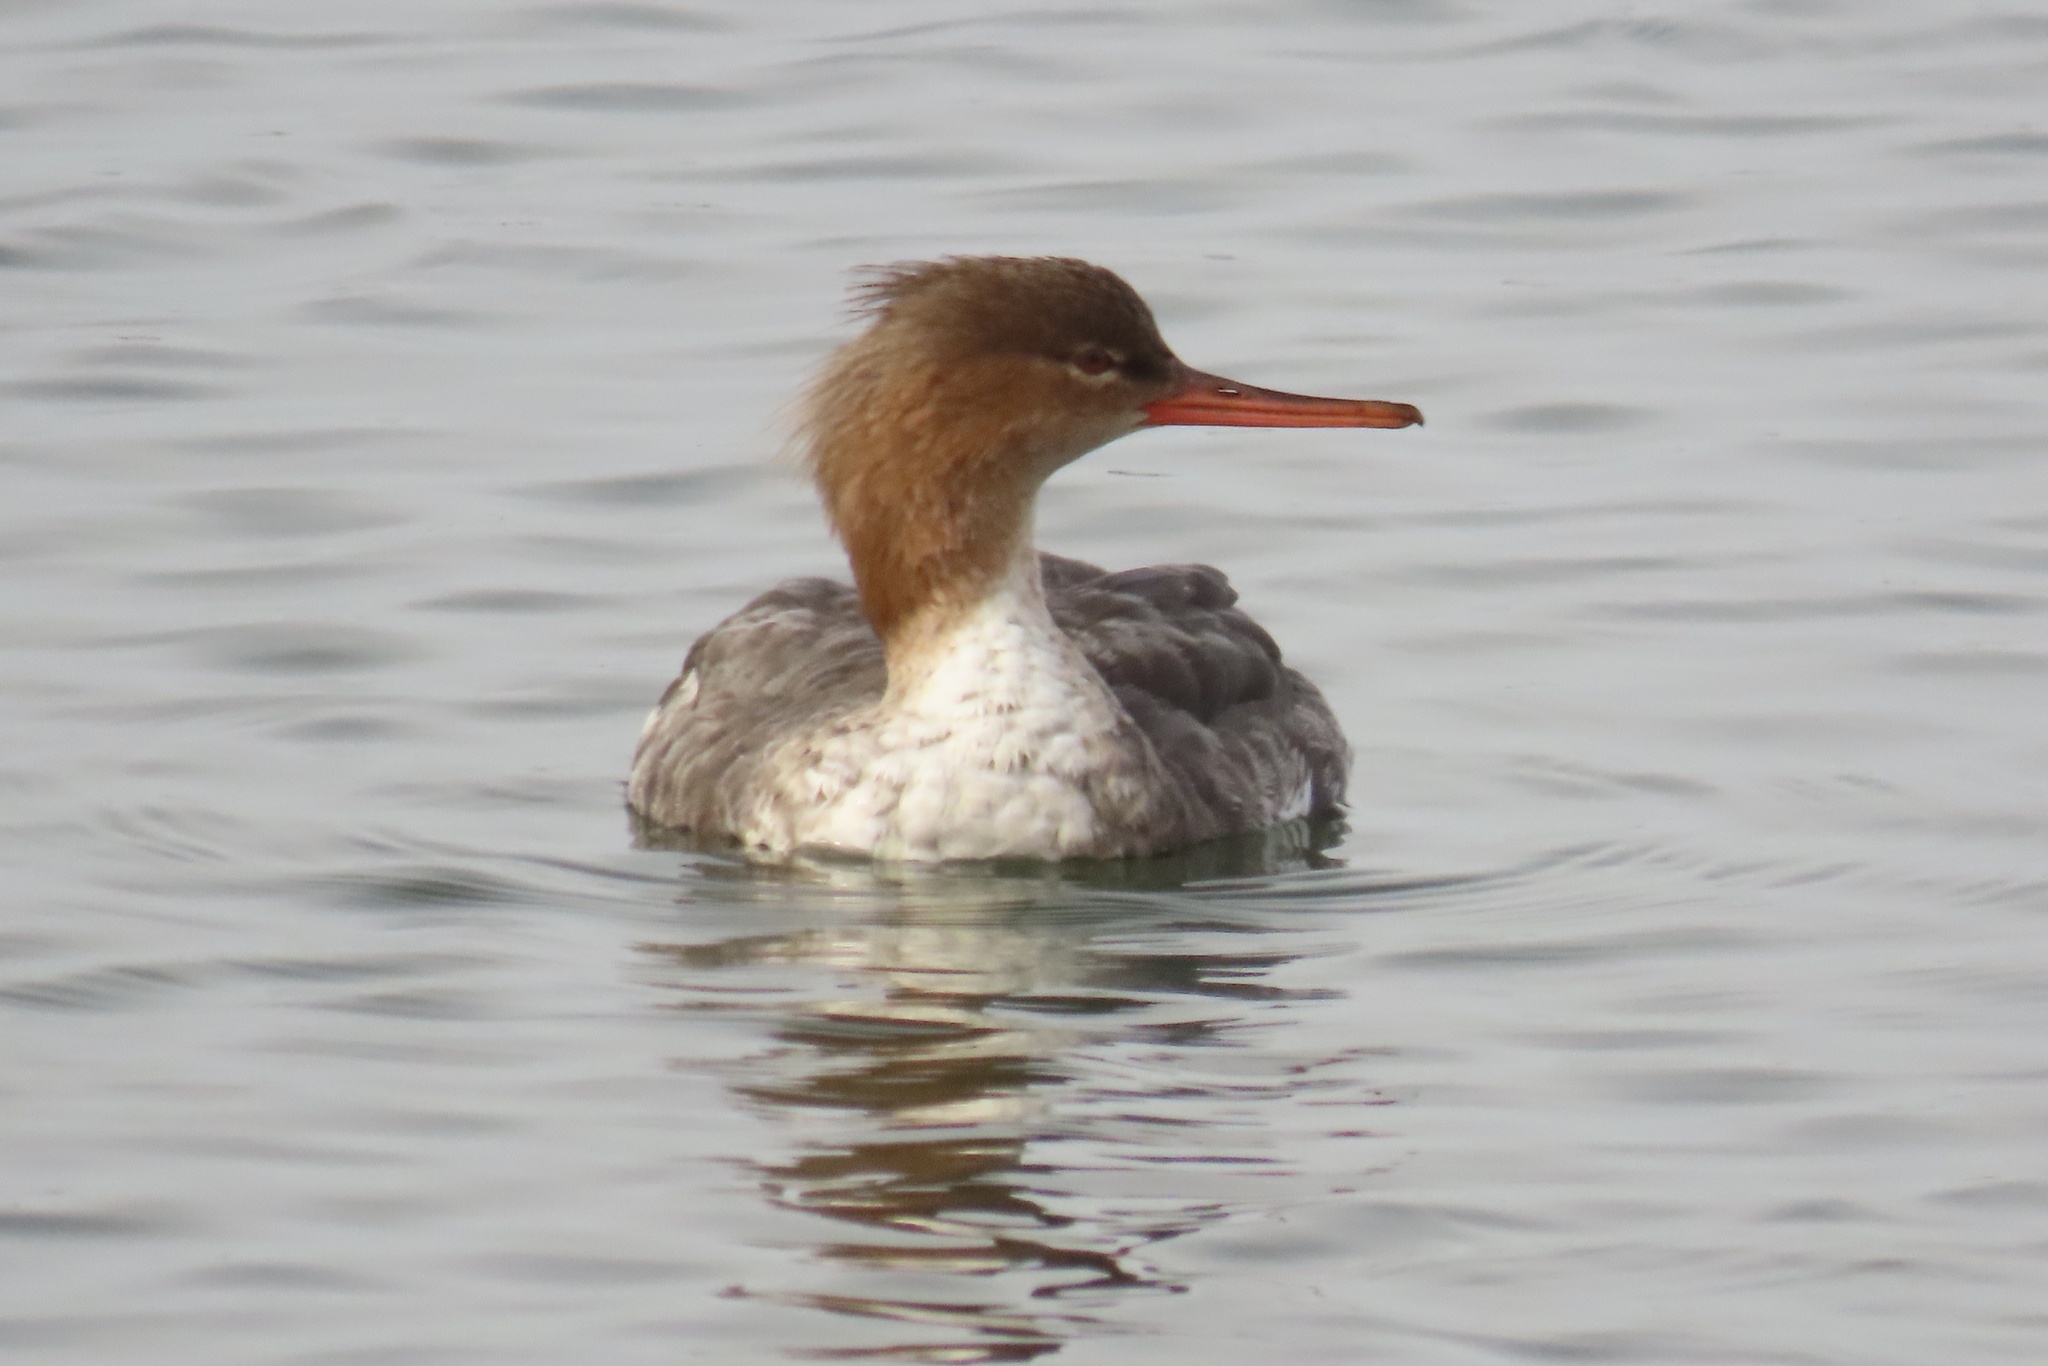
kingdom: Animalia
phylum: Chordata
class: Aves
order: Anseriformes
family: Anatidae
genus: Mergus
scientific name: Mergus serrator
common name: Red-breasted merganser
